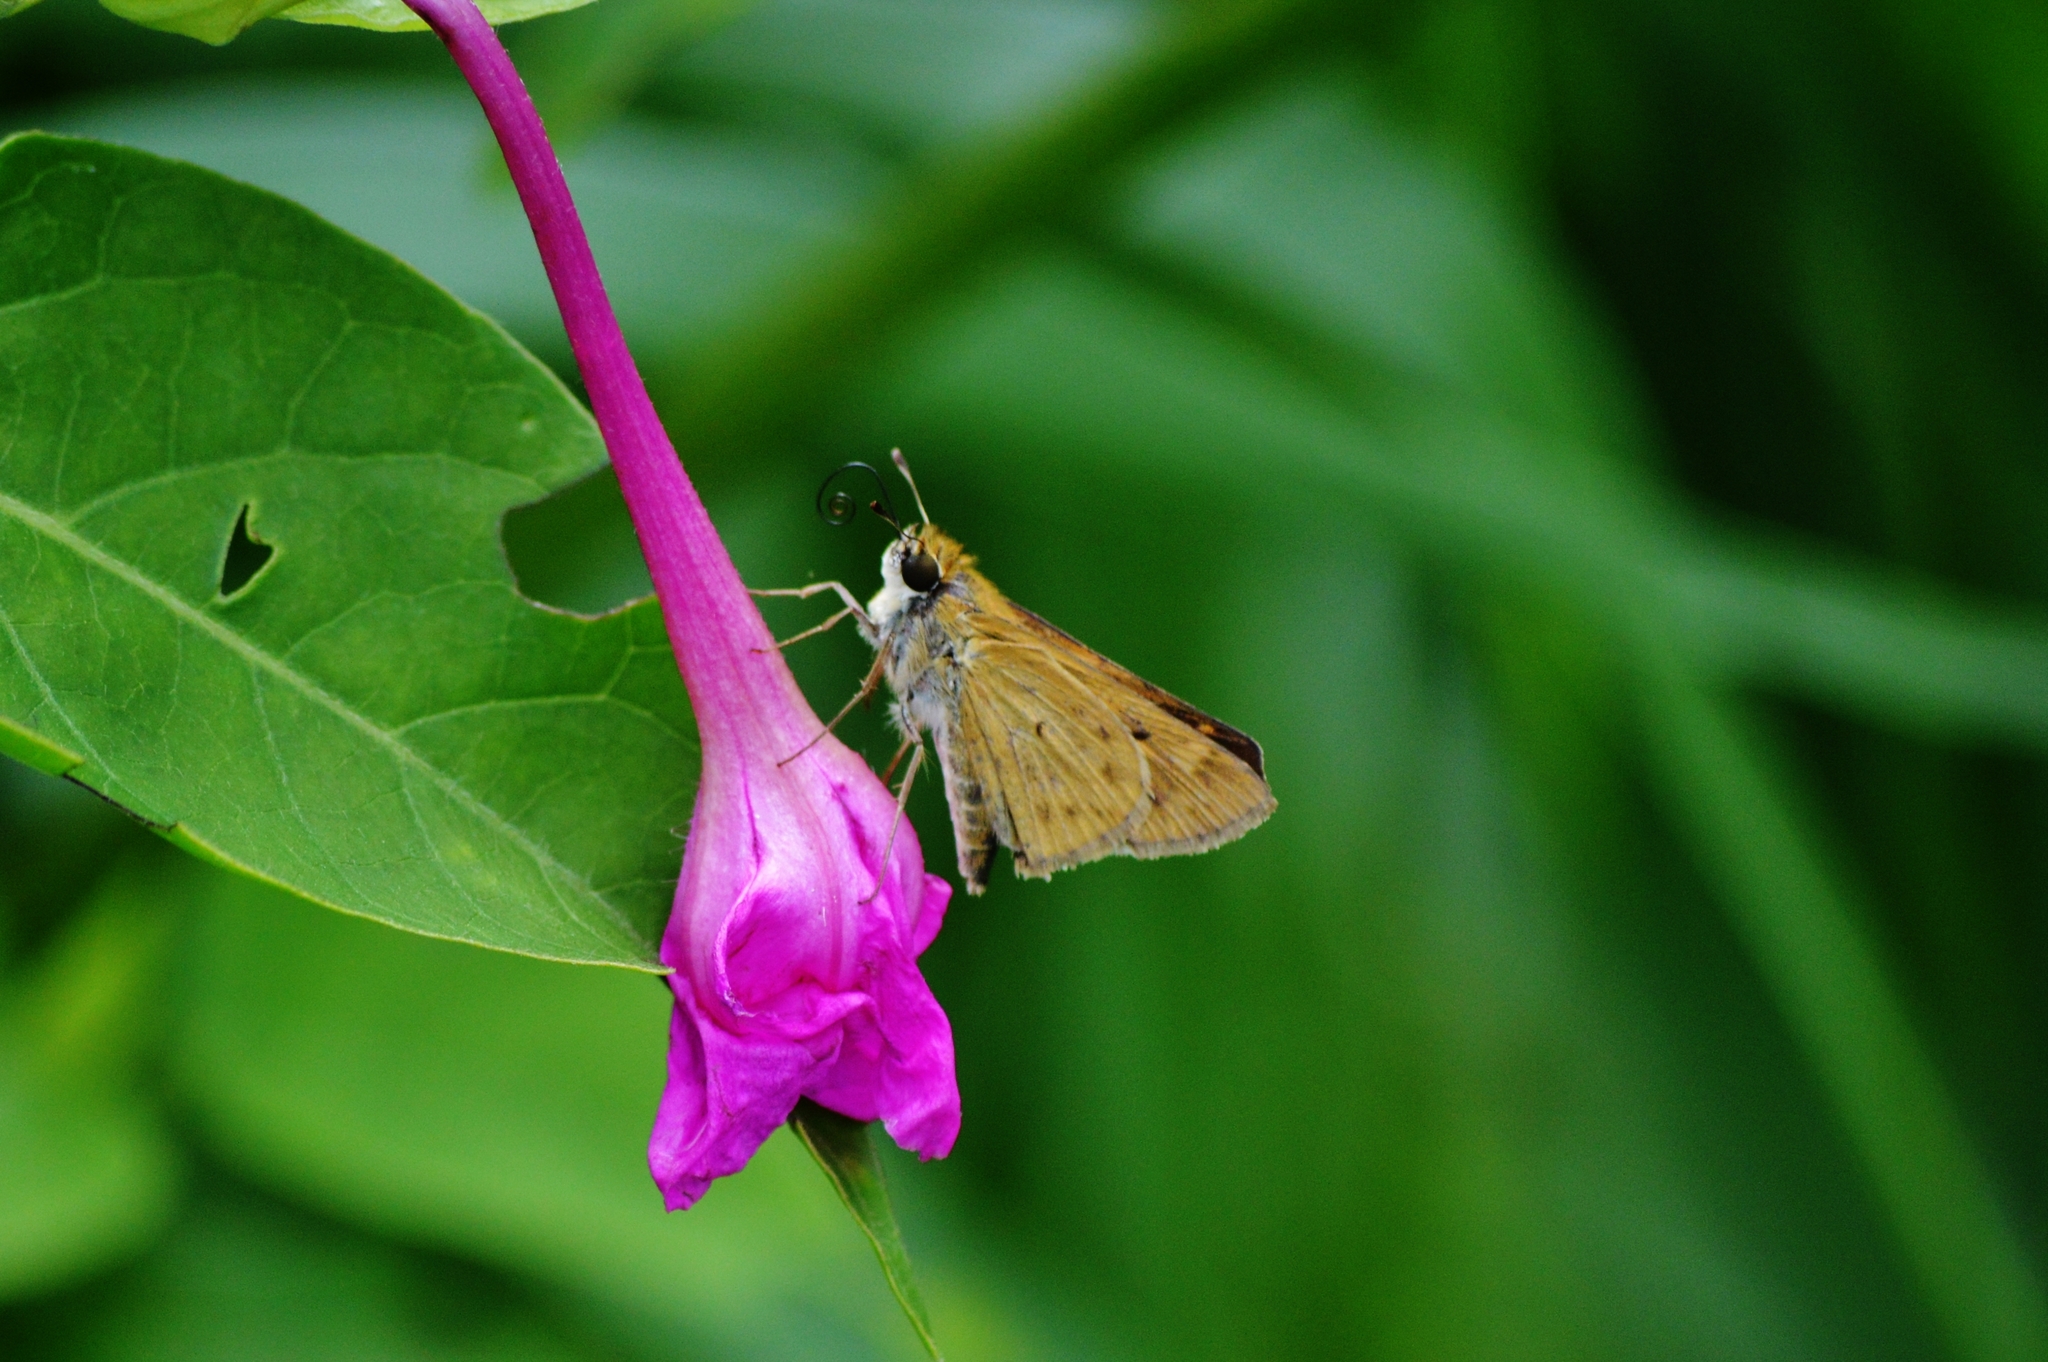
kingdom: Animalia
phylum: Arthropoda
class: Insecta
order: Lepidoptera
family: Hesperiidae
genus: Hylephila
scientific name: Hylephila phyleus
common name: Fiery skipper
